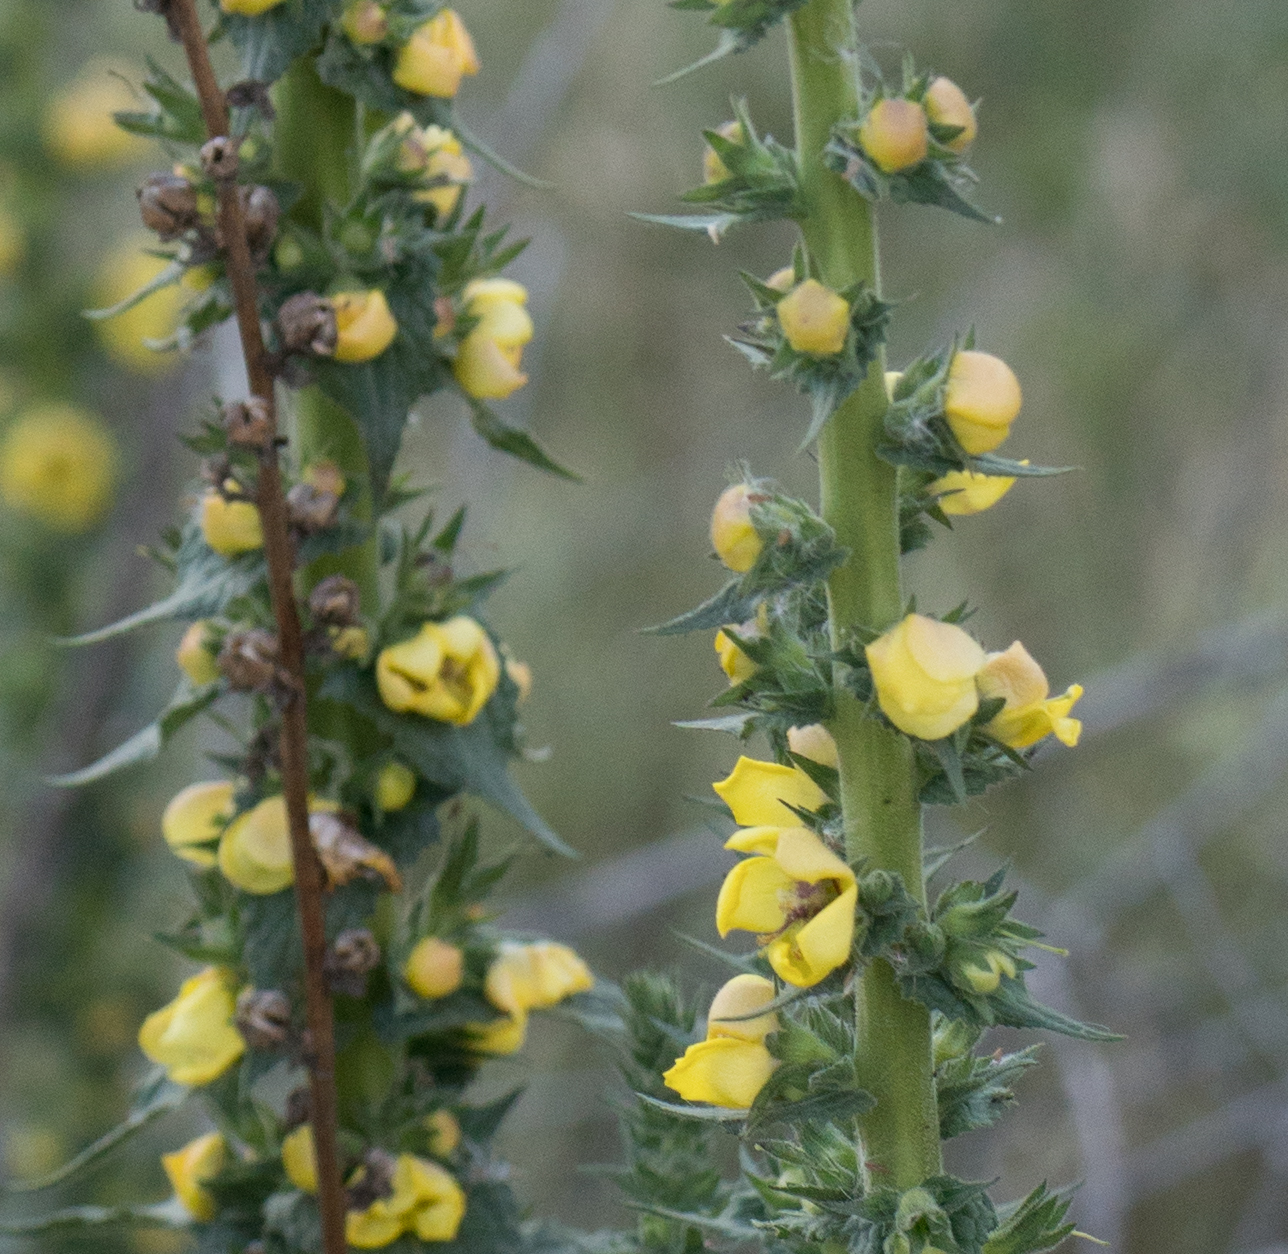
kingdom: Plantae
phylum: Tracheophyta
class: Magnoliopsida
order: Lamiales
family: Scrophulariaceae
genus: Verbascum
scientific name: Verbascum virgatum
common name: Twiggy mullein
